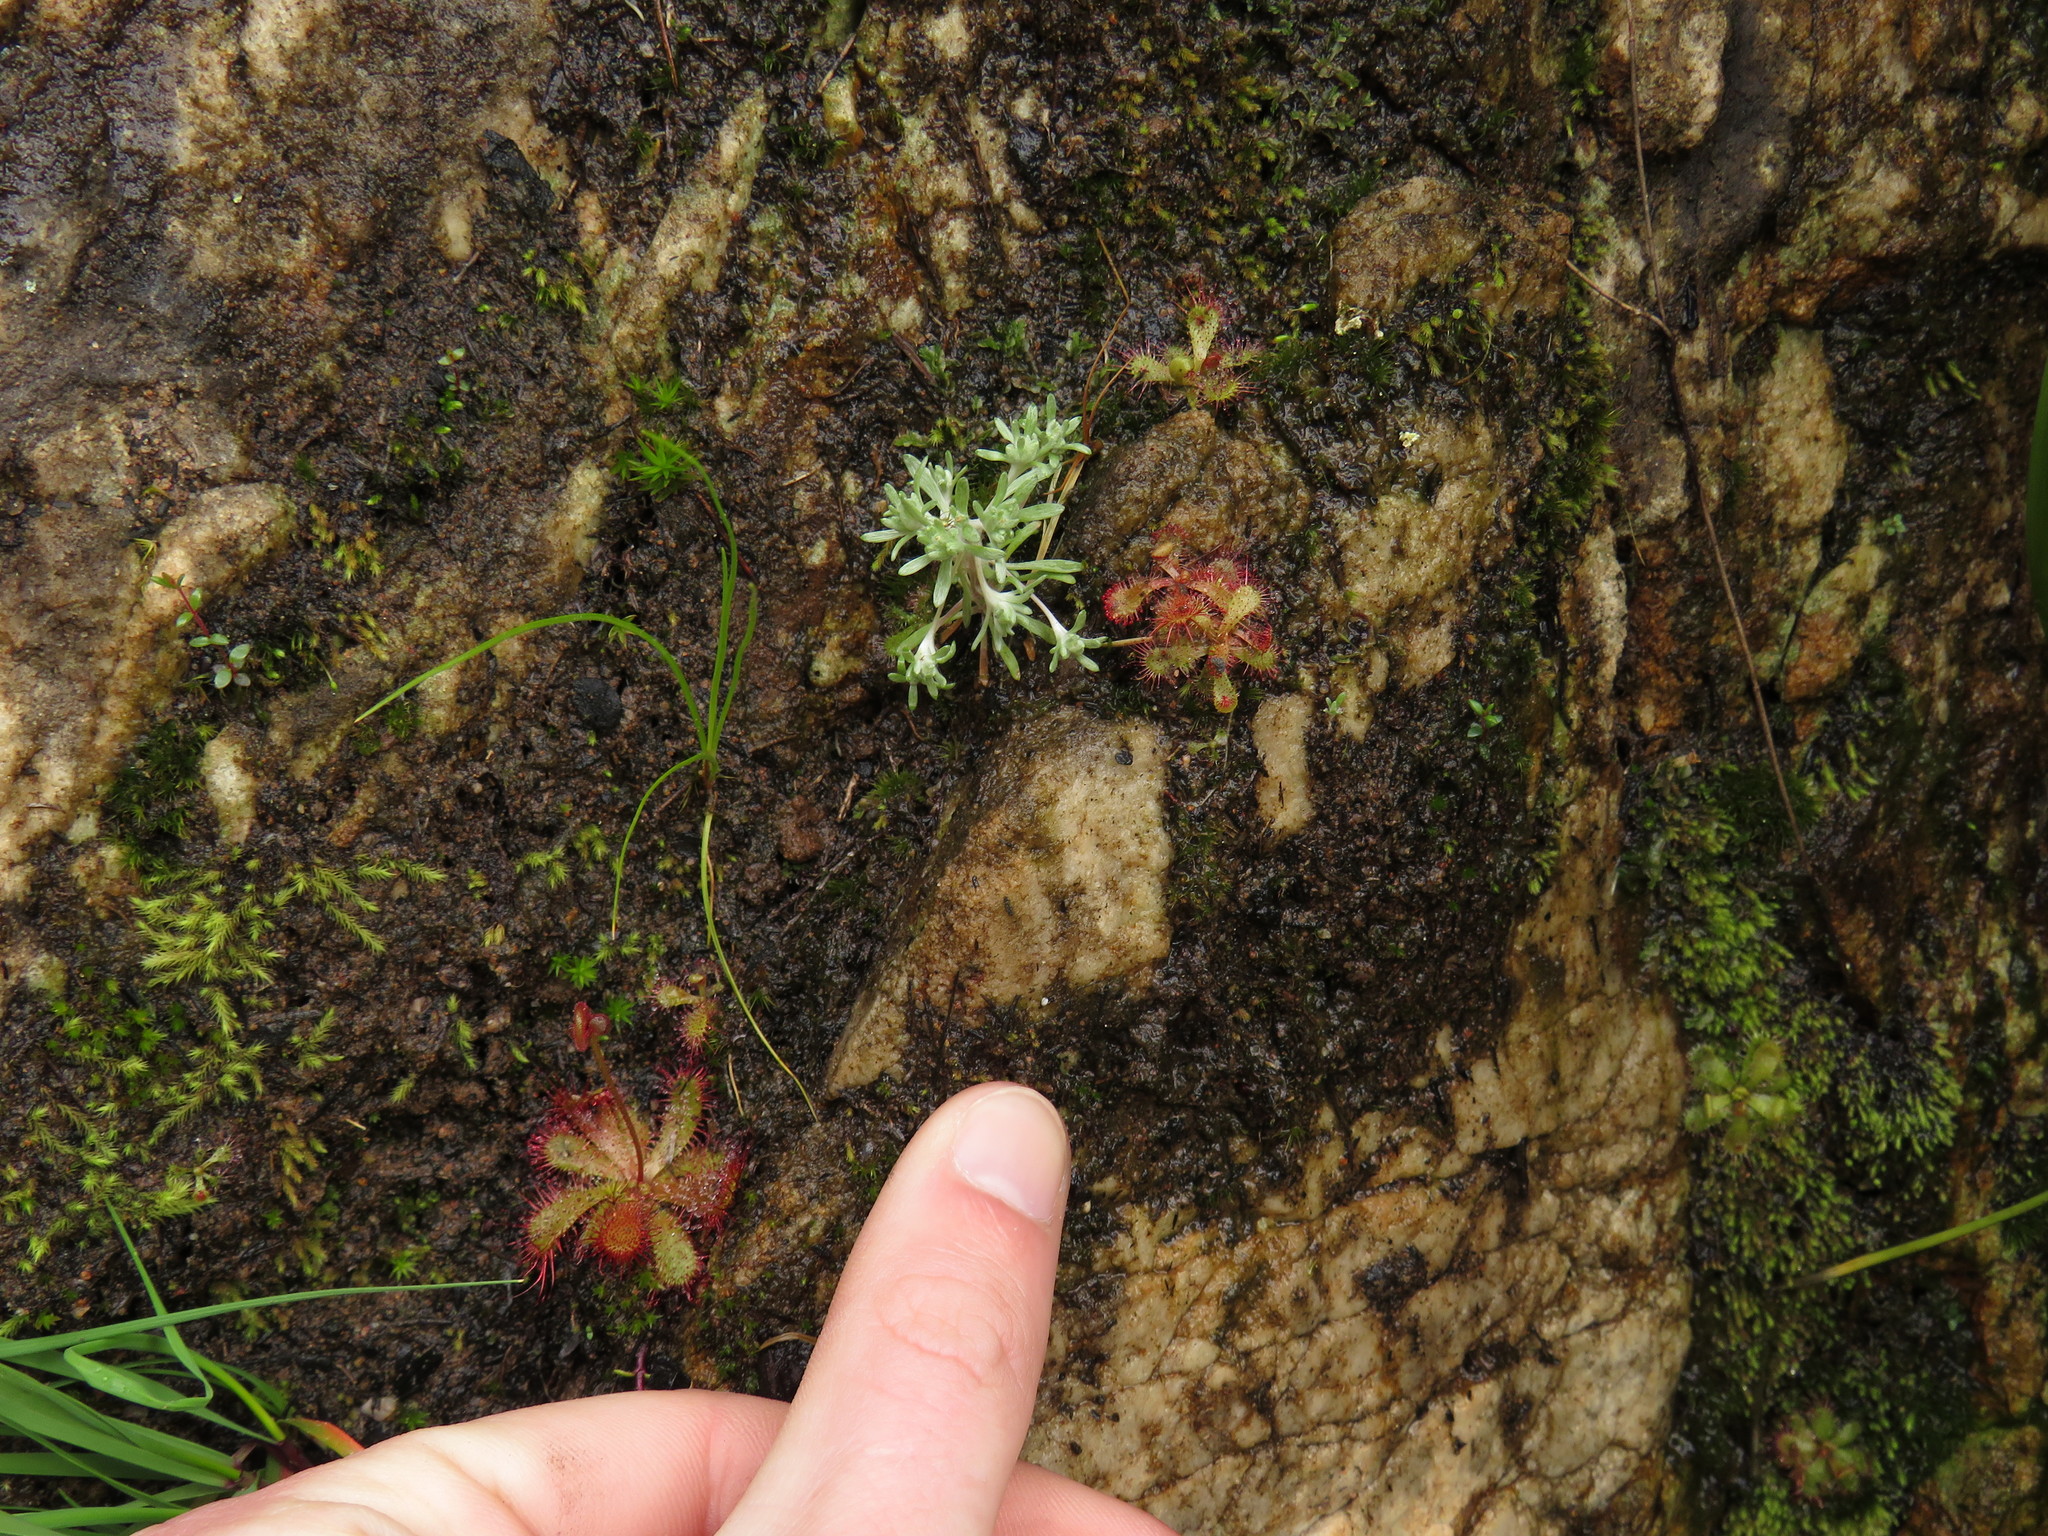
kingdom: Plantae
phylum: Tracheophyta
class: Magnoliopsida
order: Caryophyllales
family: Droseraceae
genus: Drosera
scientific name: Drosera trinervia
